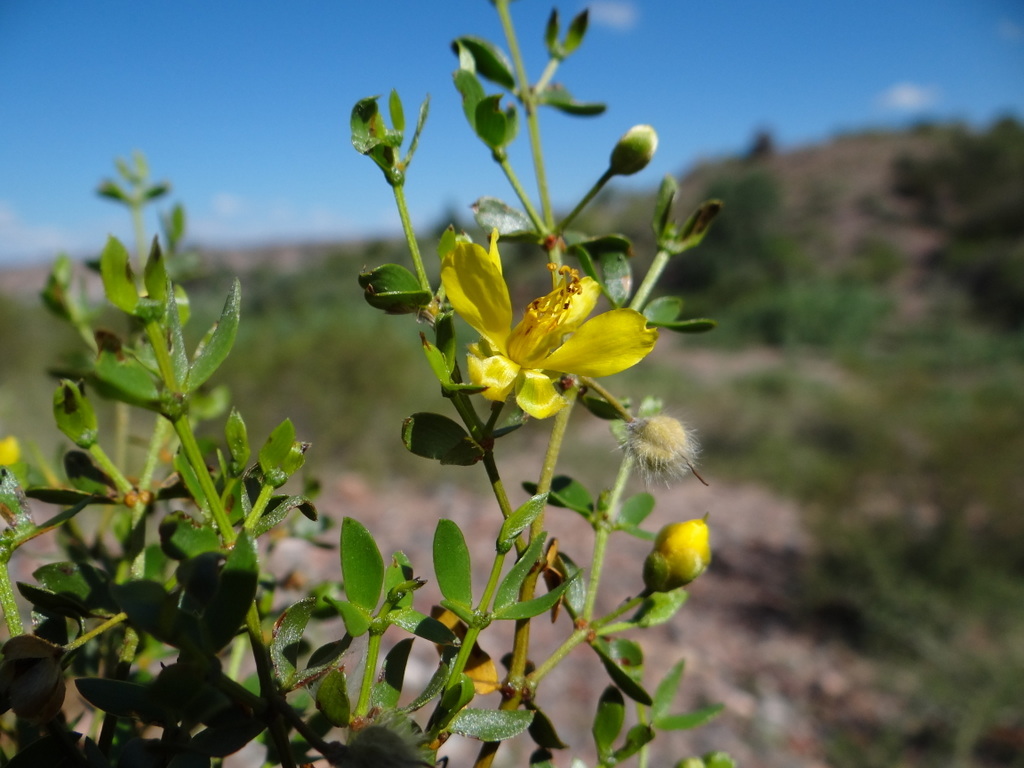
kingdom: Plantae
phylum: Tracheophyta
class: Magnoliopsida
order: Zygophyllales
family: Zygophyllaceae
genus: Larrea
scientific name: Larrea divaricata
